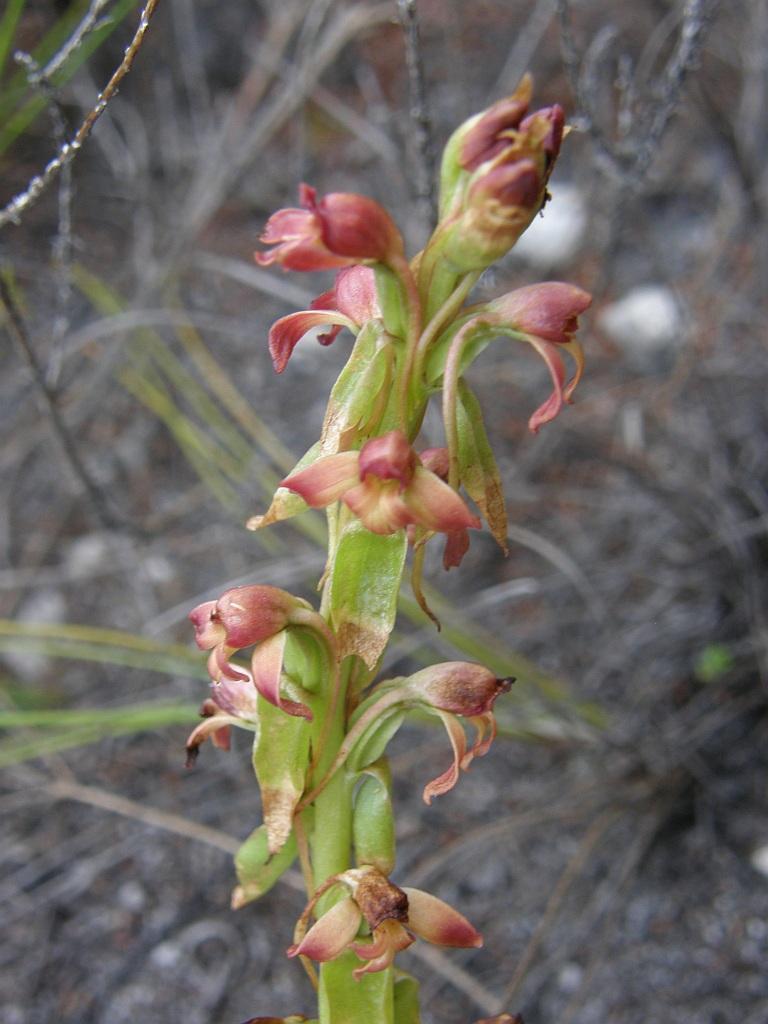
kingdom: Plantae
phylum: Tracheophyta
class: Liliopsida
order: Asparagales
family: Orchidaceae
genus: Satyrium
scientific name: Satyrium bicorne
